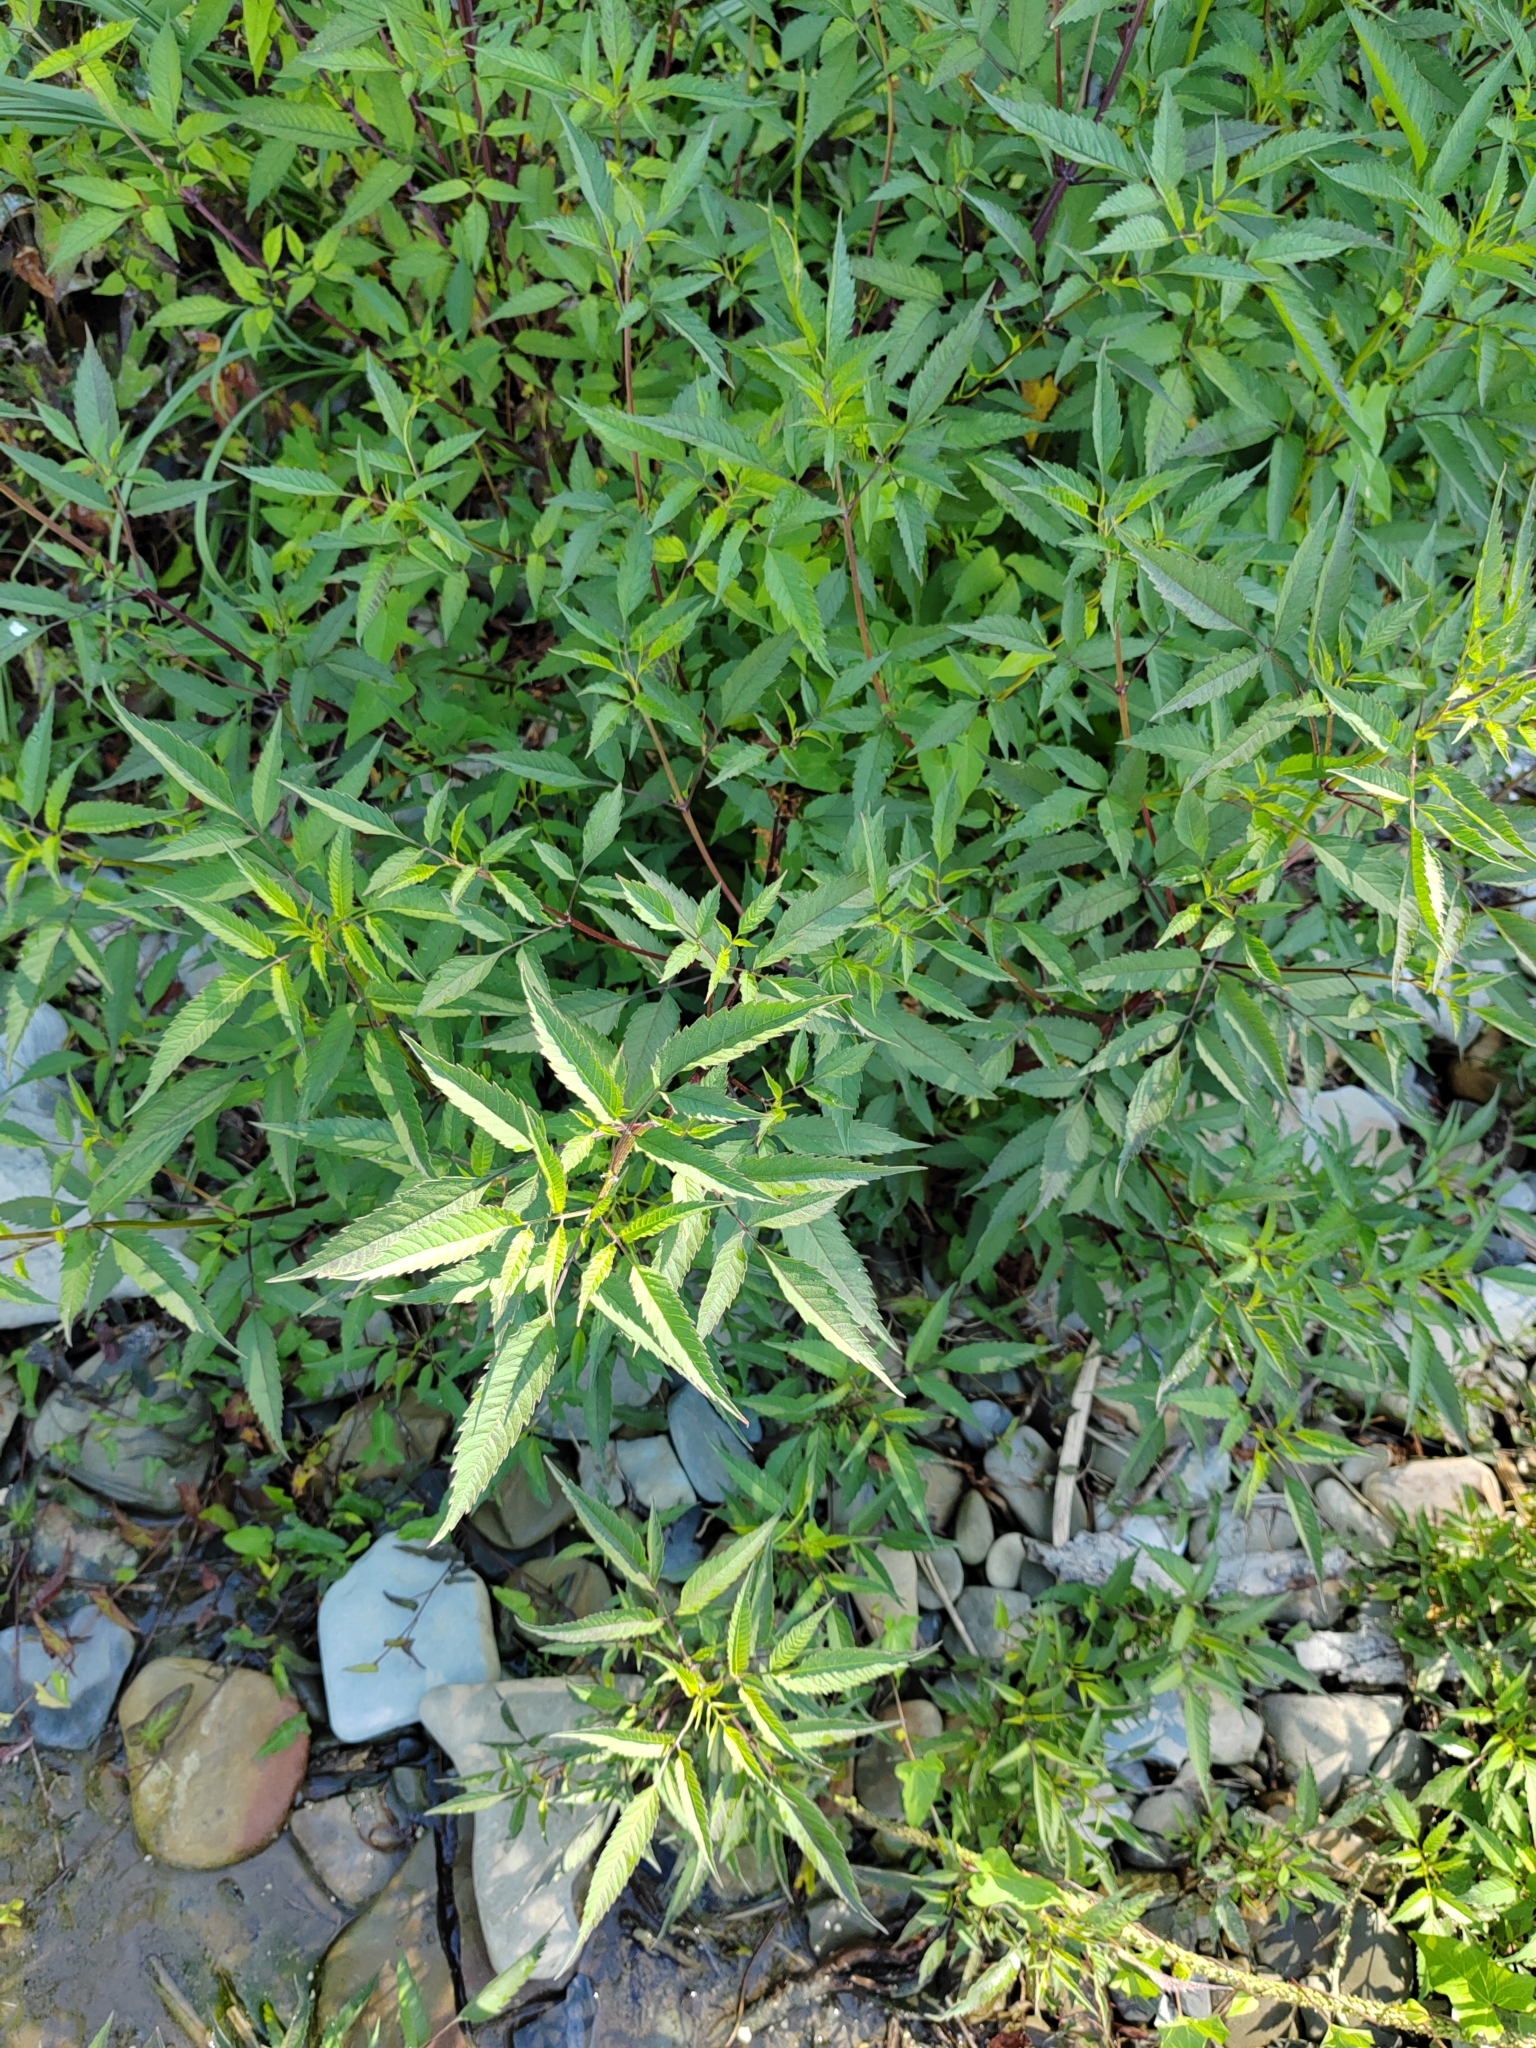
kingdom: Plantae
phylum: Tracheophyta
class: Magnoliopsida
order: Asterales
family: Asteraceae
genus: Bidens
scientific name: Bidens frondosa
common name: Beggarticks
